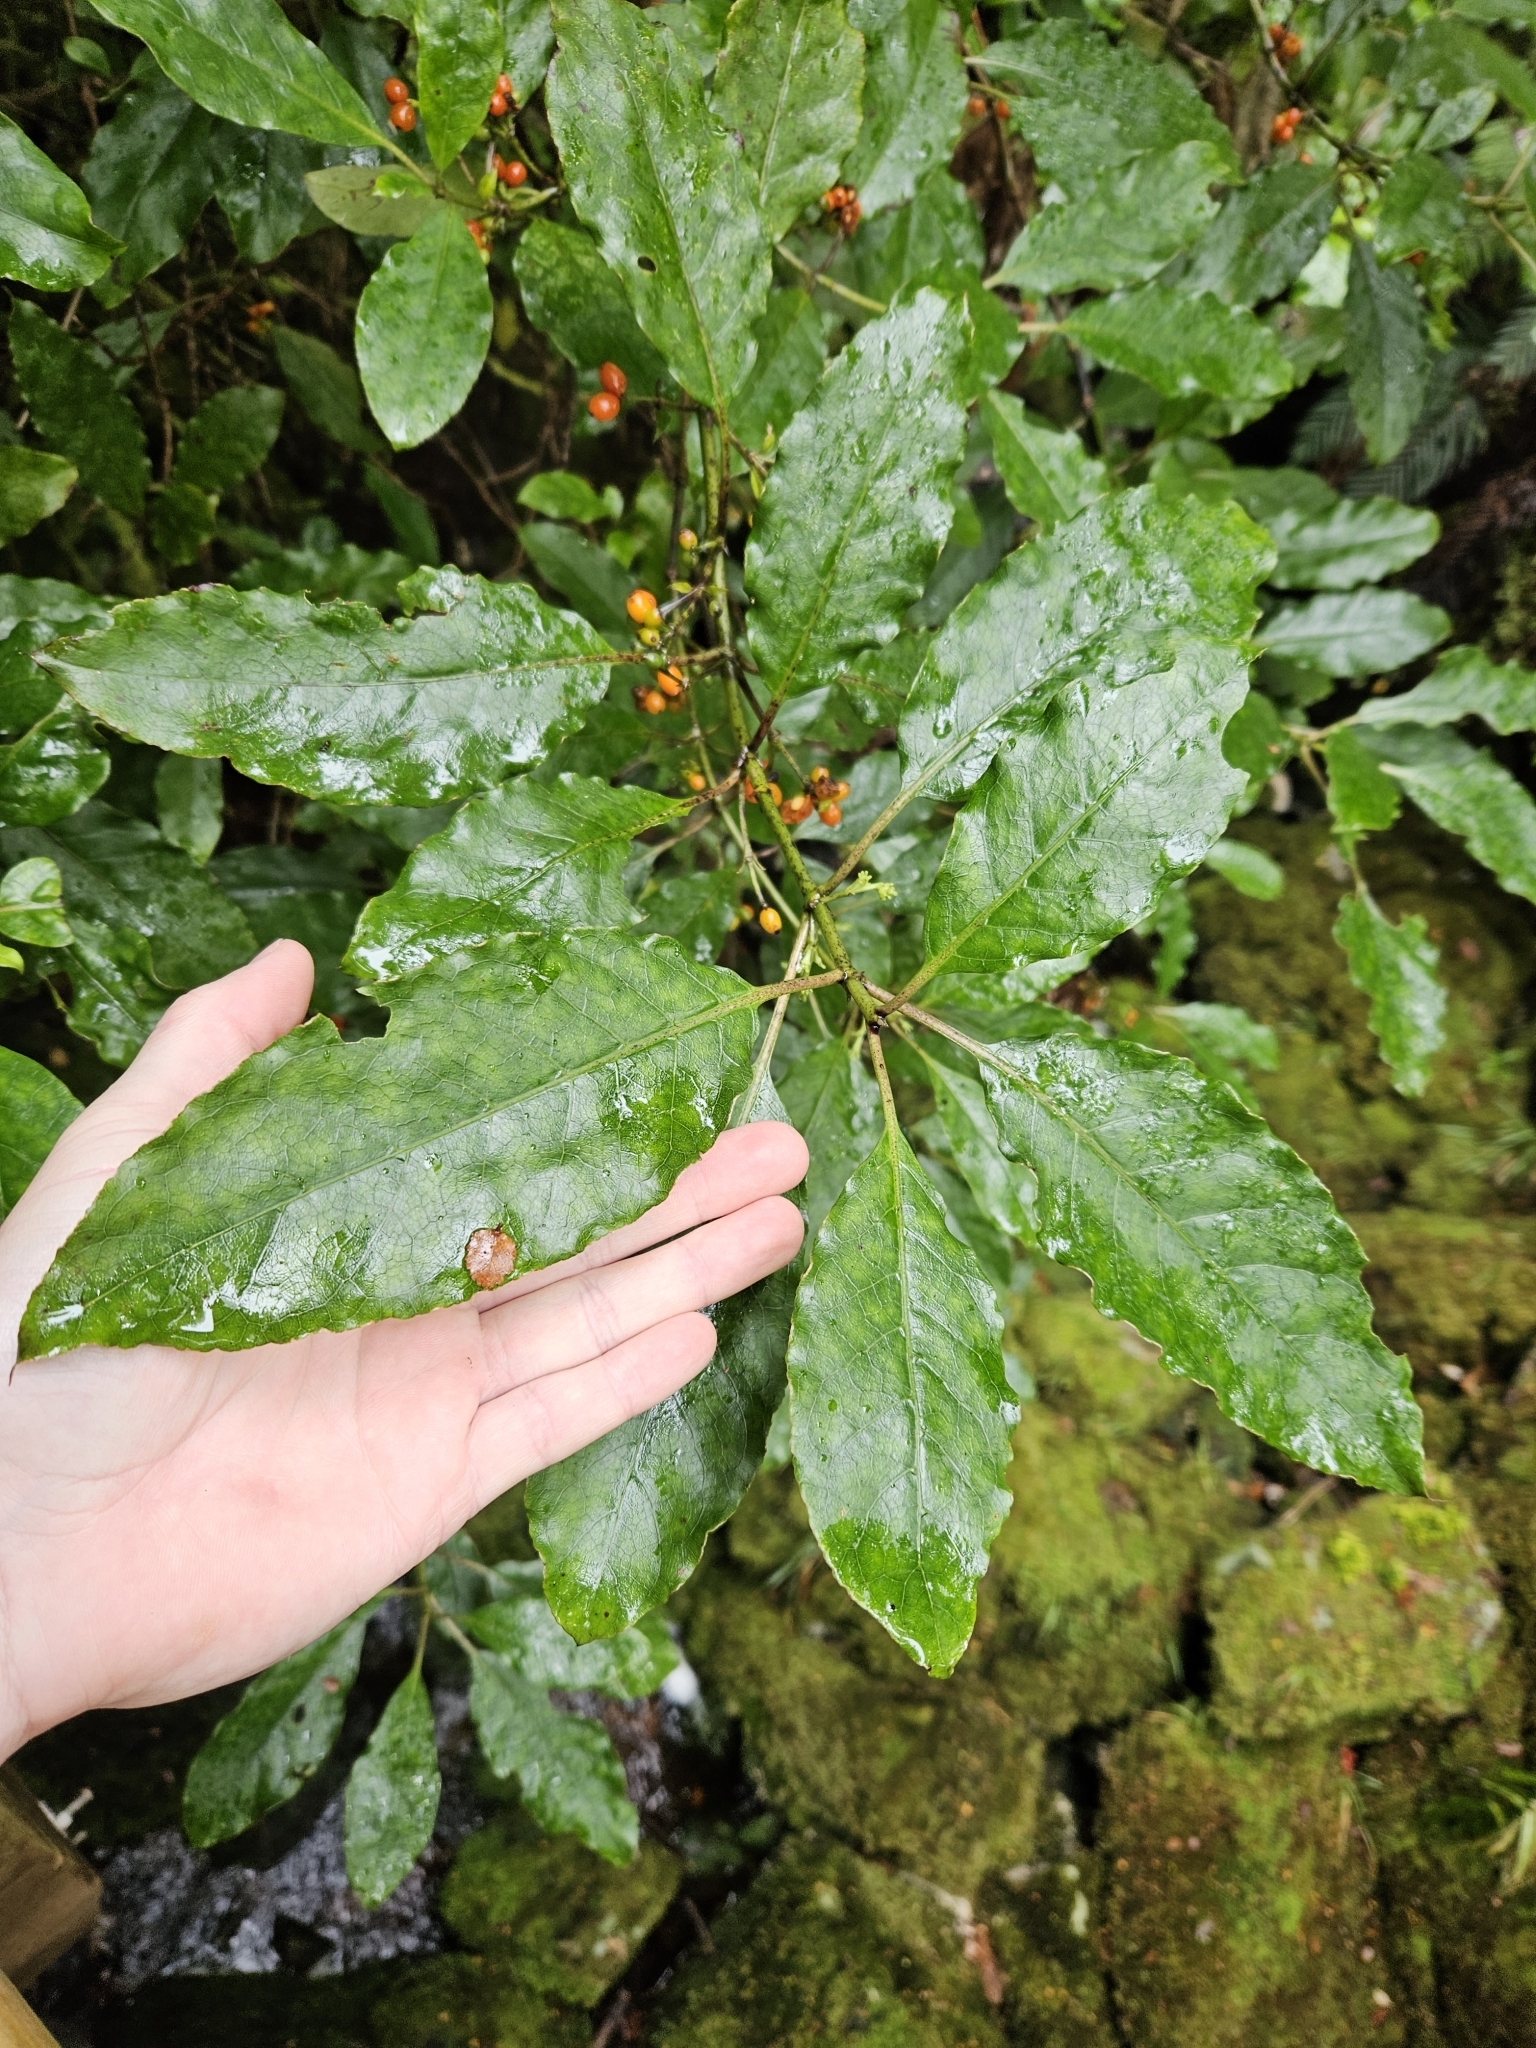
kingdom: Plantae
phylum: Tracheophyta
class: Magnoliopsida
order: Gentianales
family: Rubiaceae
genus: Coprosma
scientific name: Coprosma autumnalis
